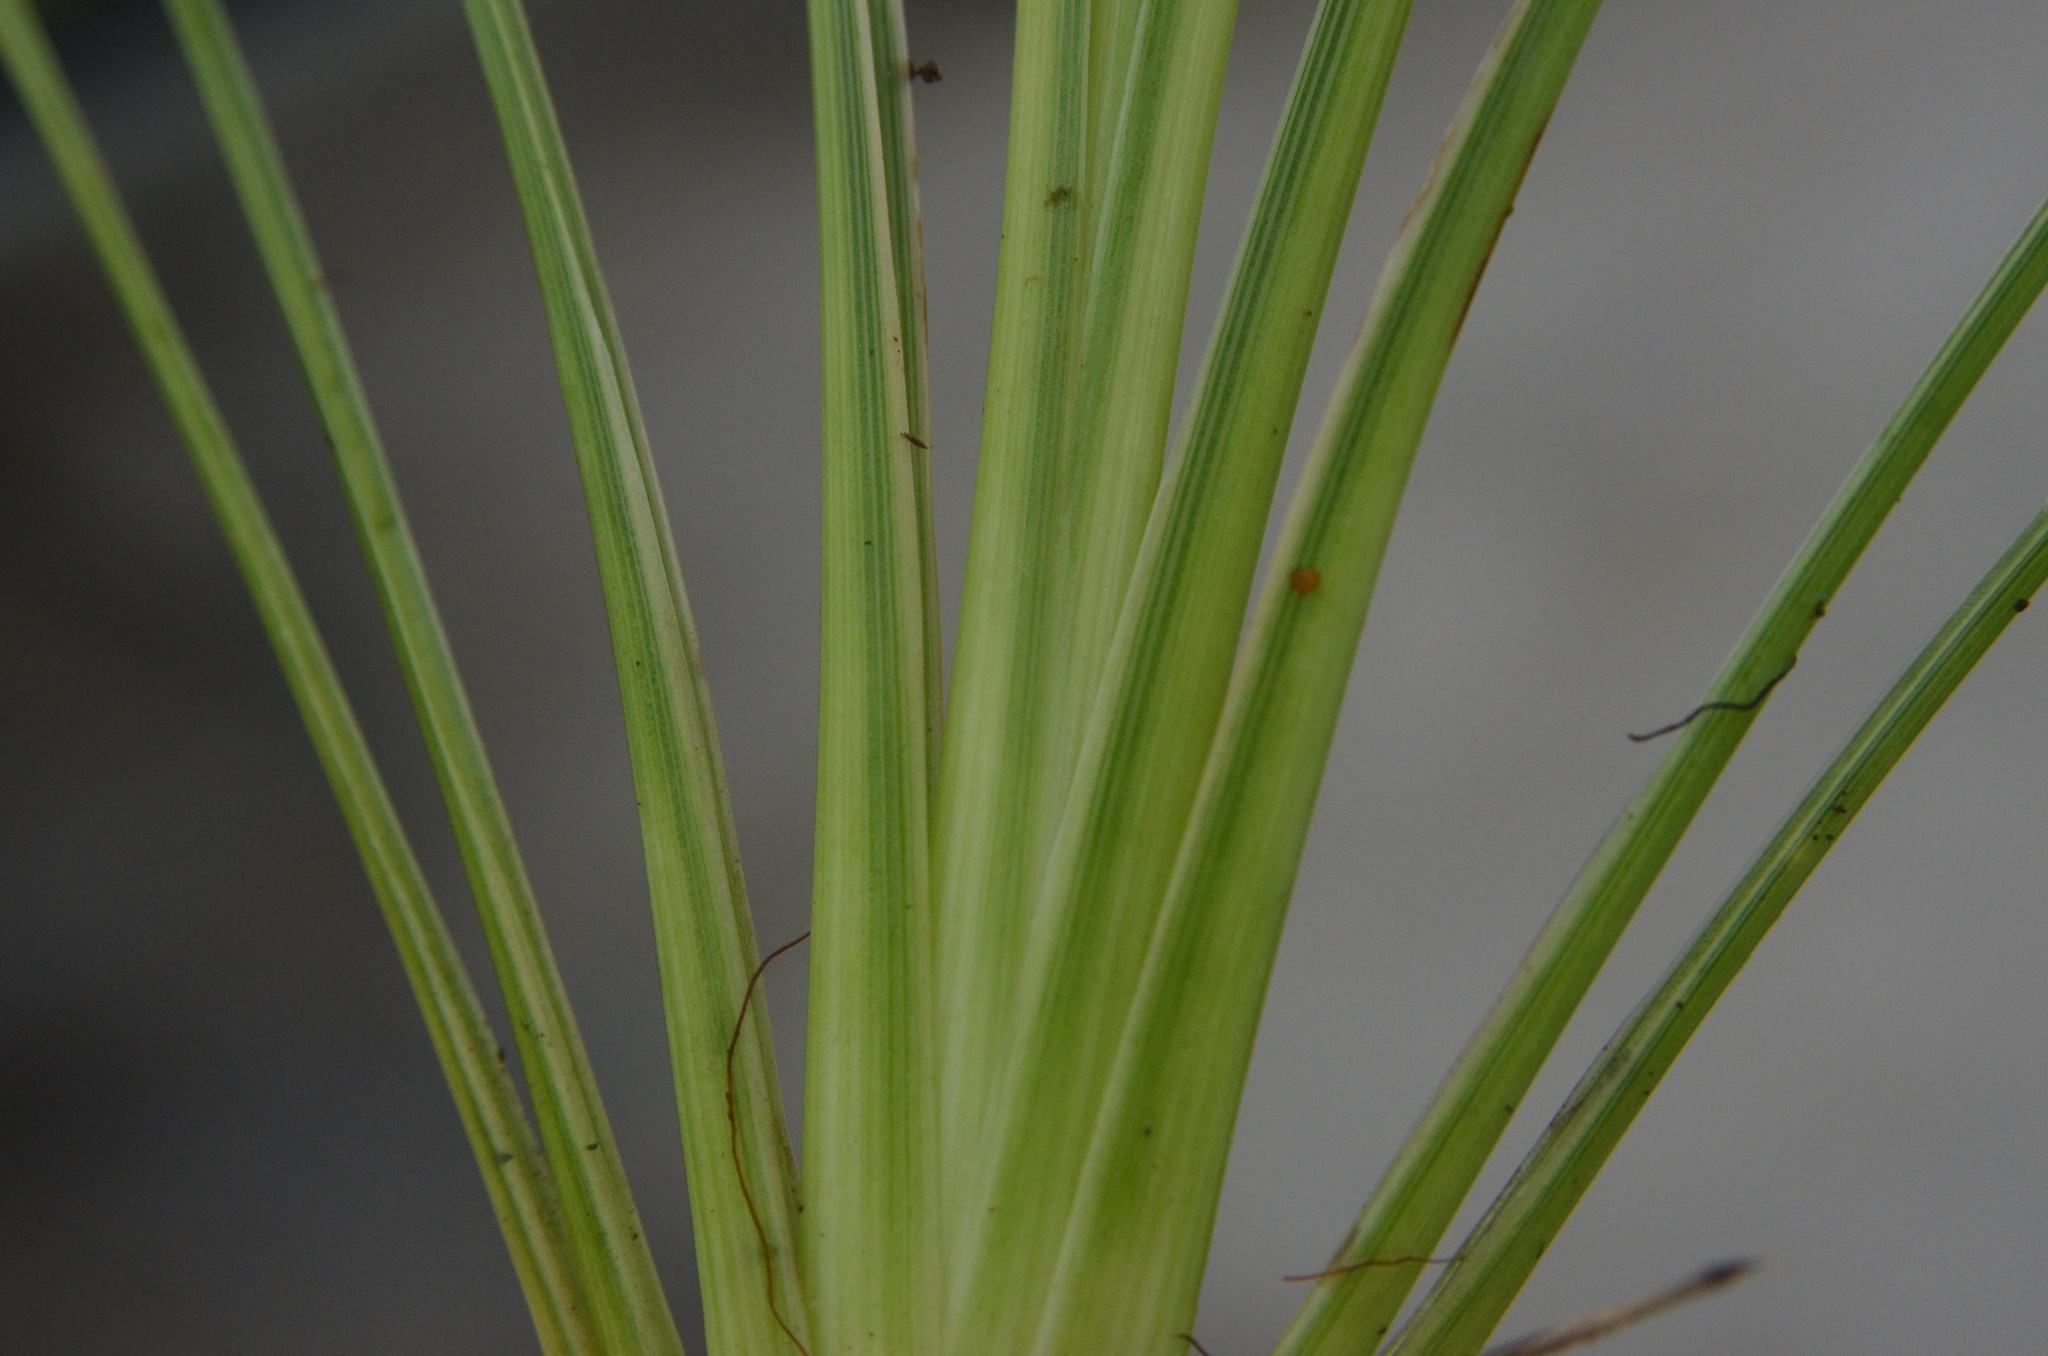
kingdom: Plantae
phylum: Tracheophyta
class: Liliopsida
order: Asparagales
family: Asparagaceae
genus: Cordyline
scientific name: Cordyline australis
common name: Cabbage-palm
